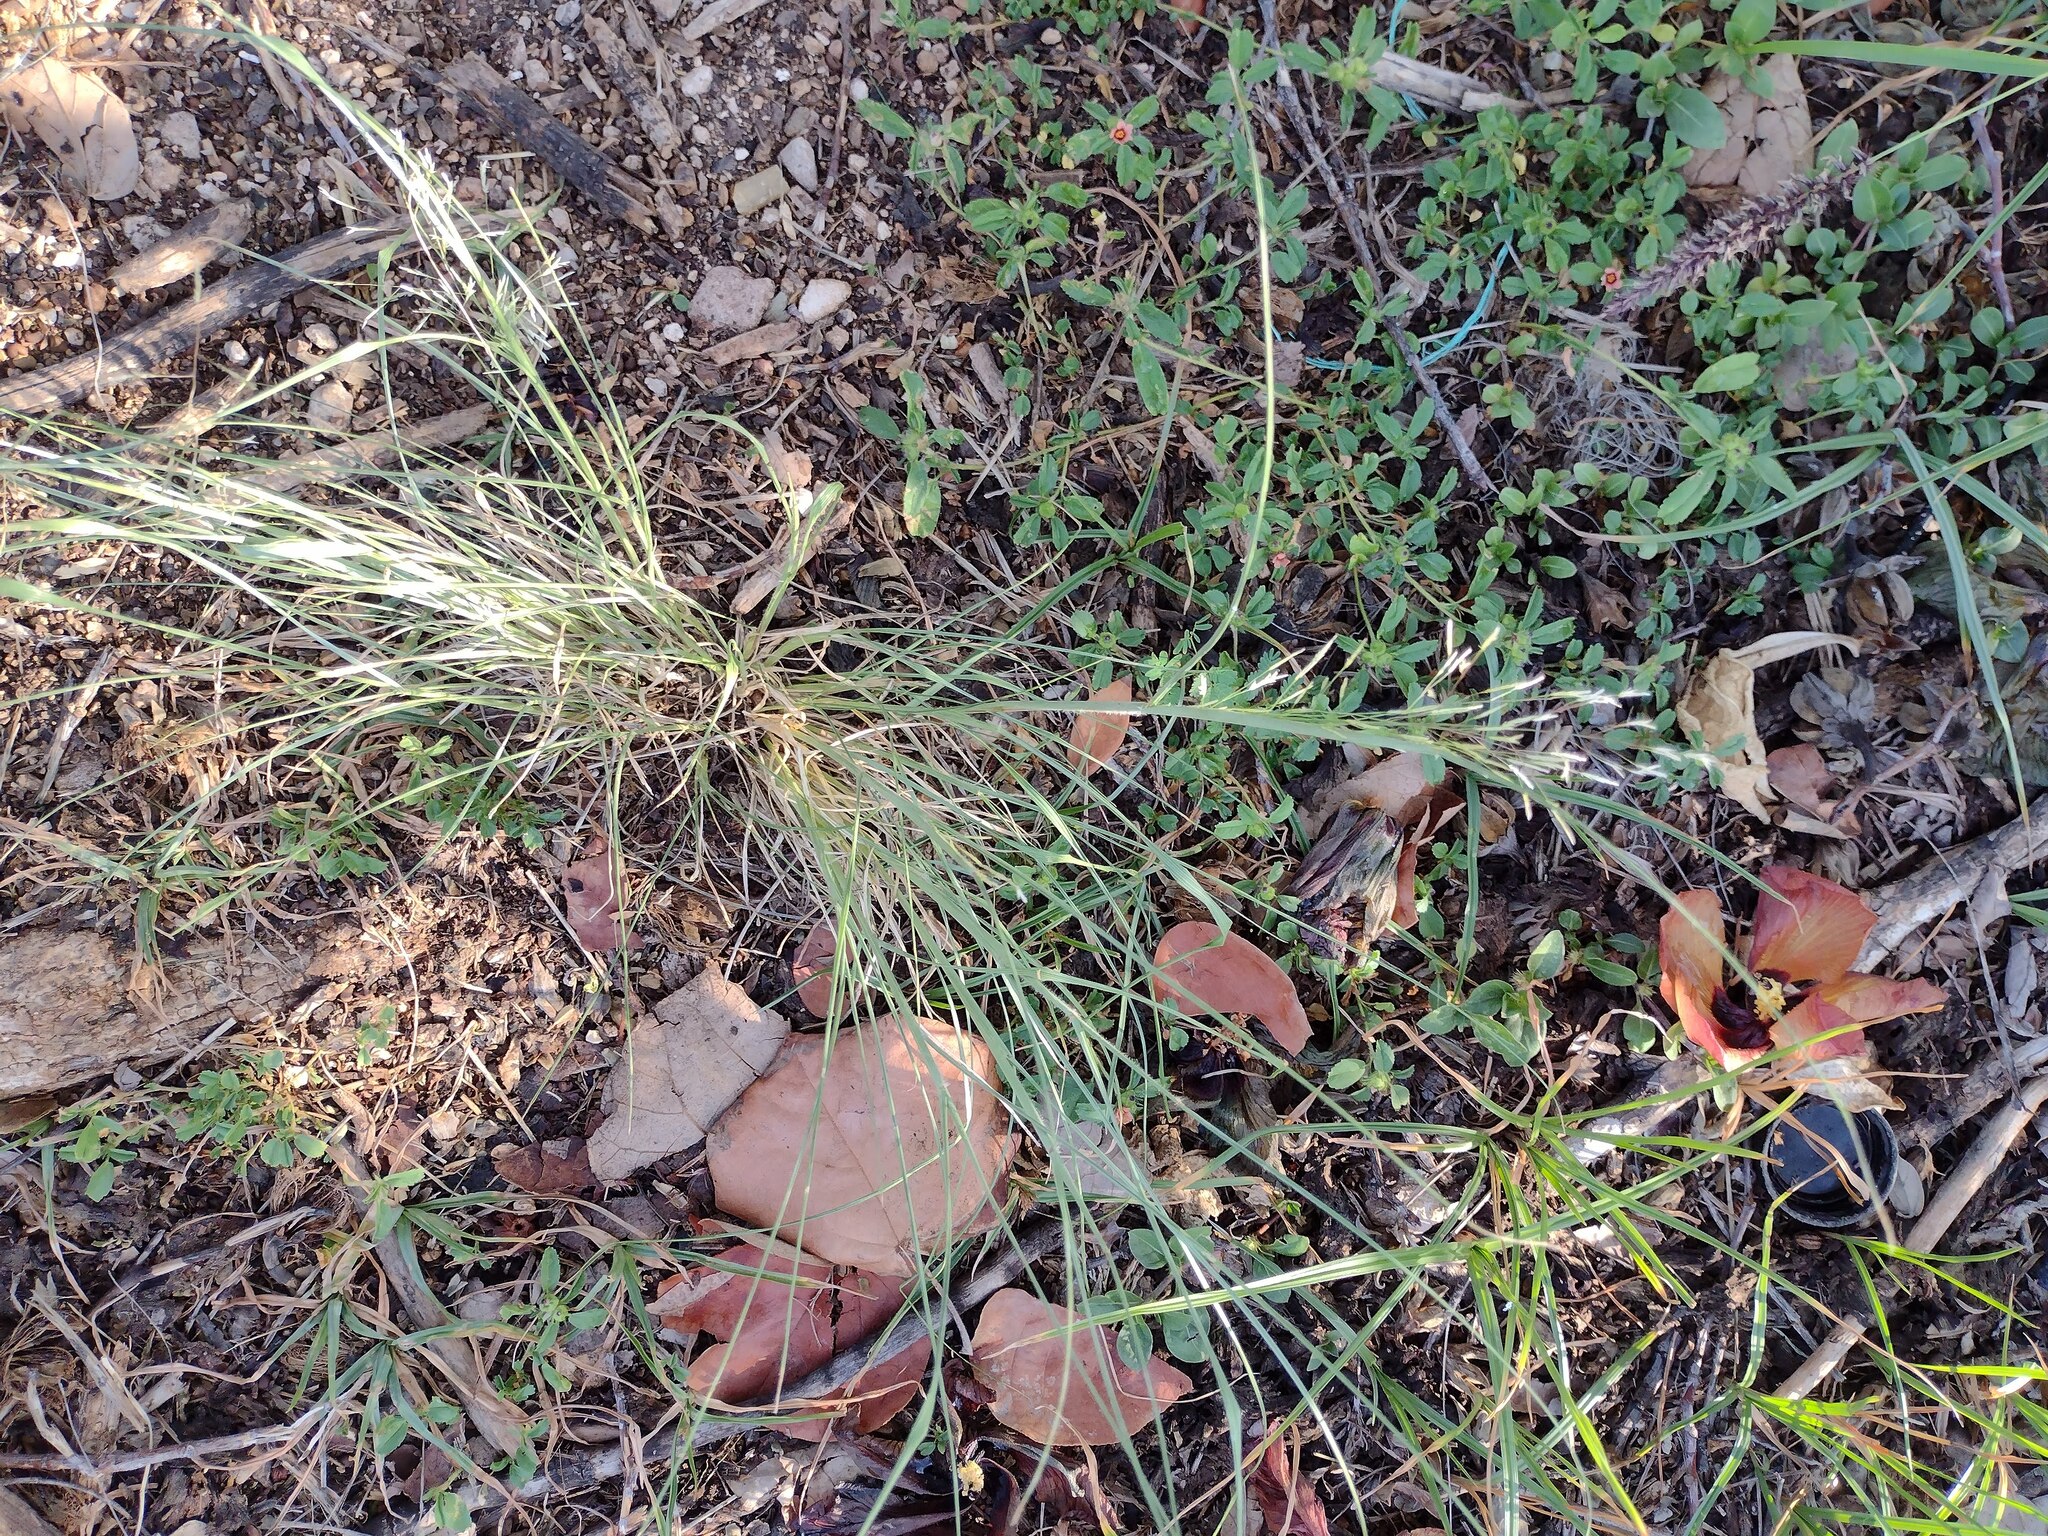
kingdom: Plantae
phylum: Tracheophyta
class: Liliopsida
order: Poales
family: Poaceae
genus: Eragrostis
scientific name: Eragrostis tenuifolia
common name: Elastic grass
